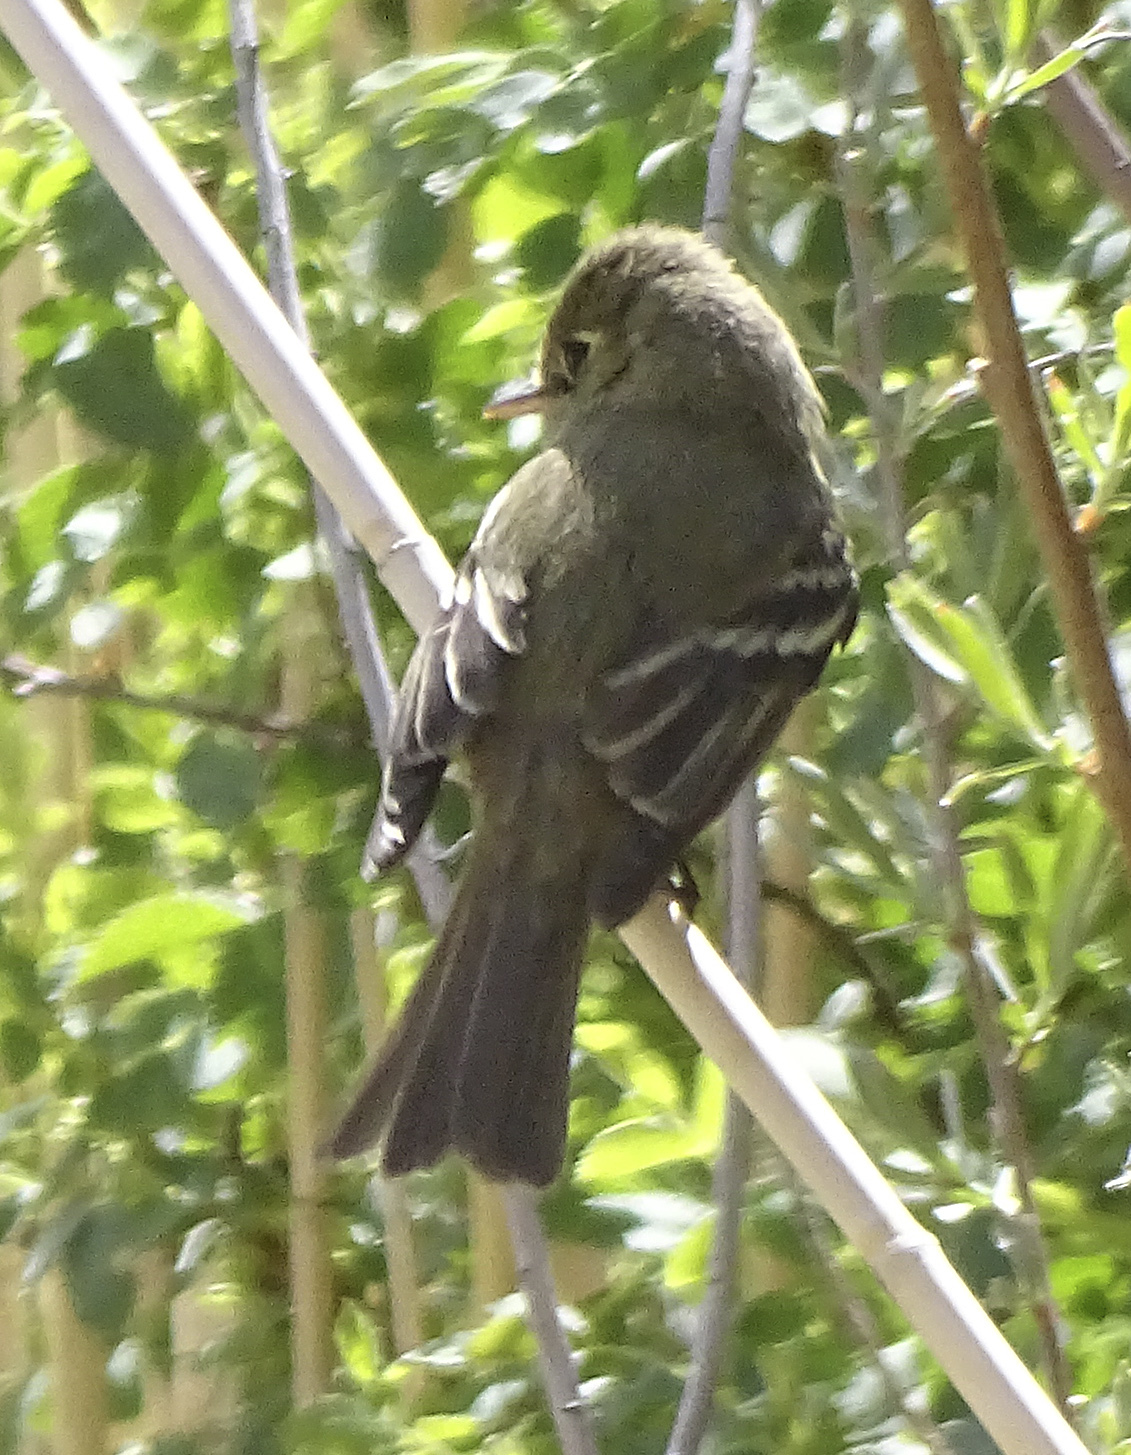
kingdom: Animalia
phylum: Chordata
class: Aves
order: Passeriformes
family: Tyrannidae
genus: Empidonax
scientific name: Empidonax difficilis
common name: Pacific-slope flycatcher
